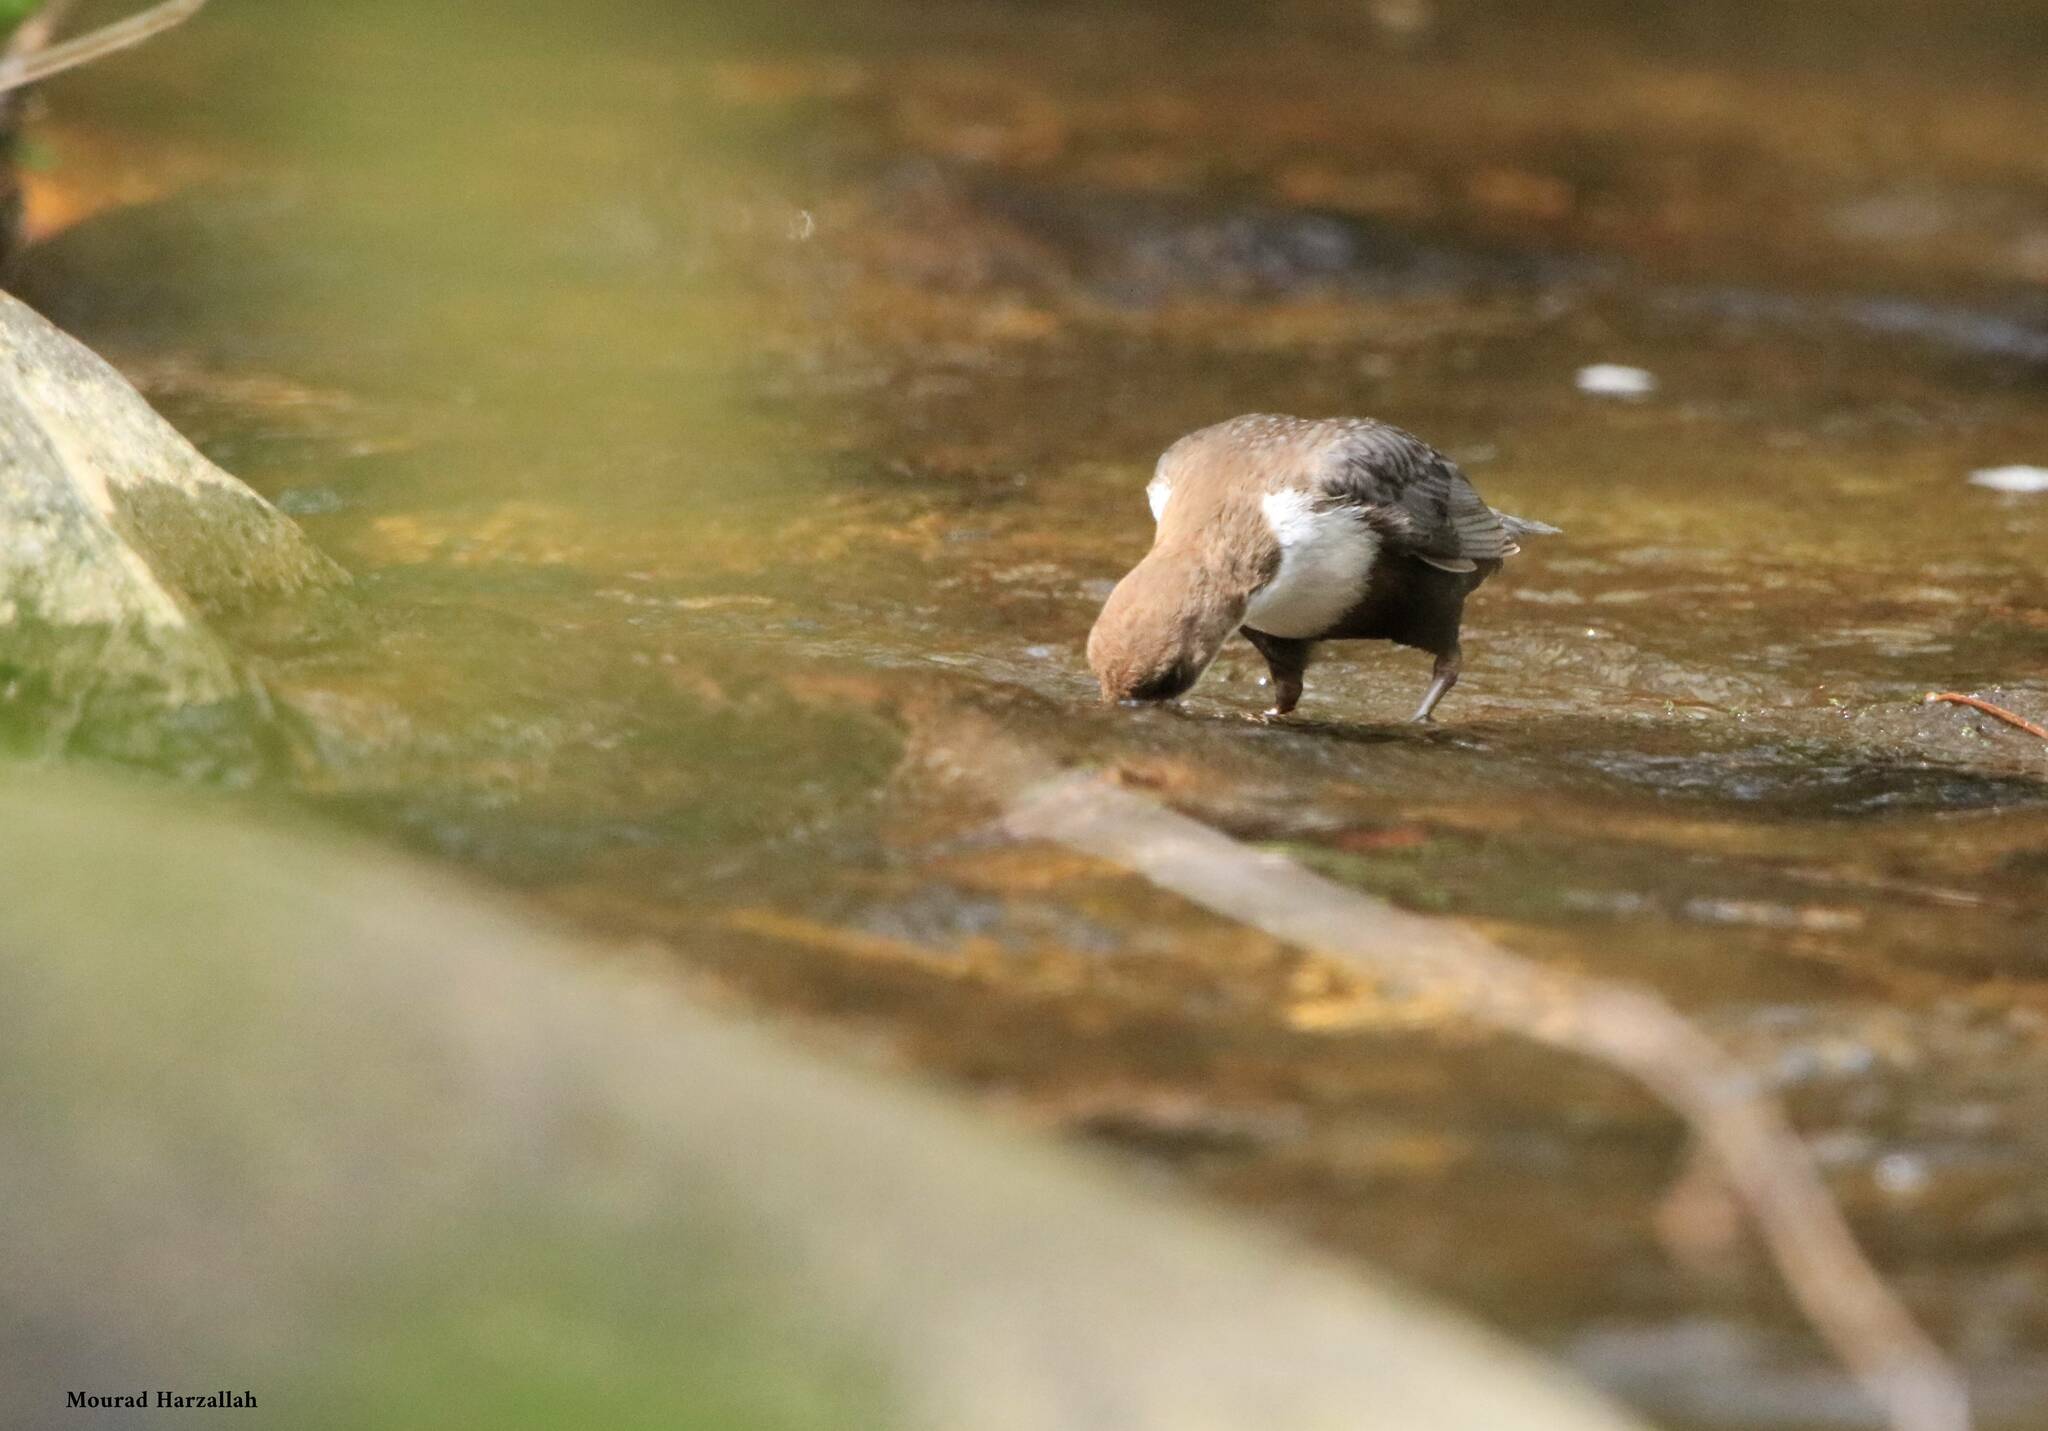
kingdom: Animalia
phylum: Chordata
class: Aves
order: Passeriformes
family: Cinclidae
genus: Cinclus
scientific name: Cinclus cinclus
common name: White-throated dipper
